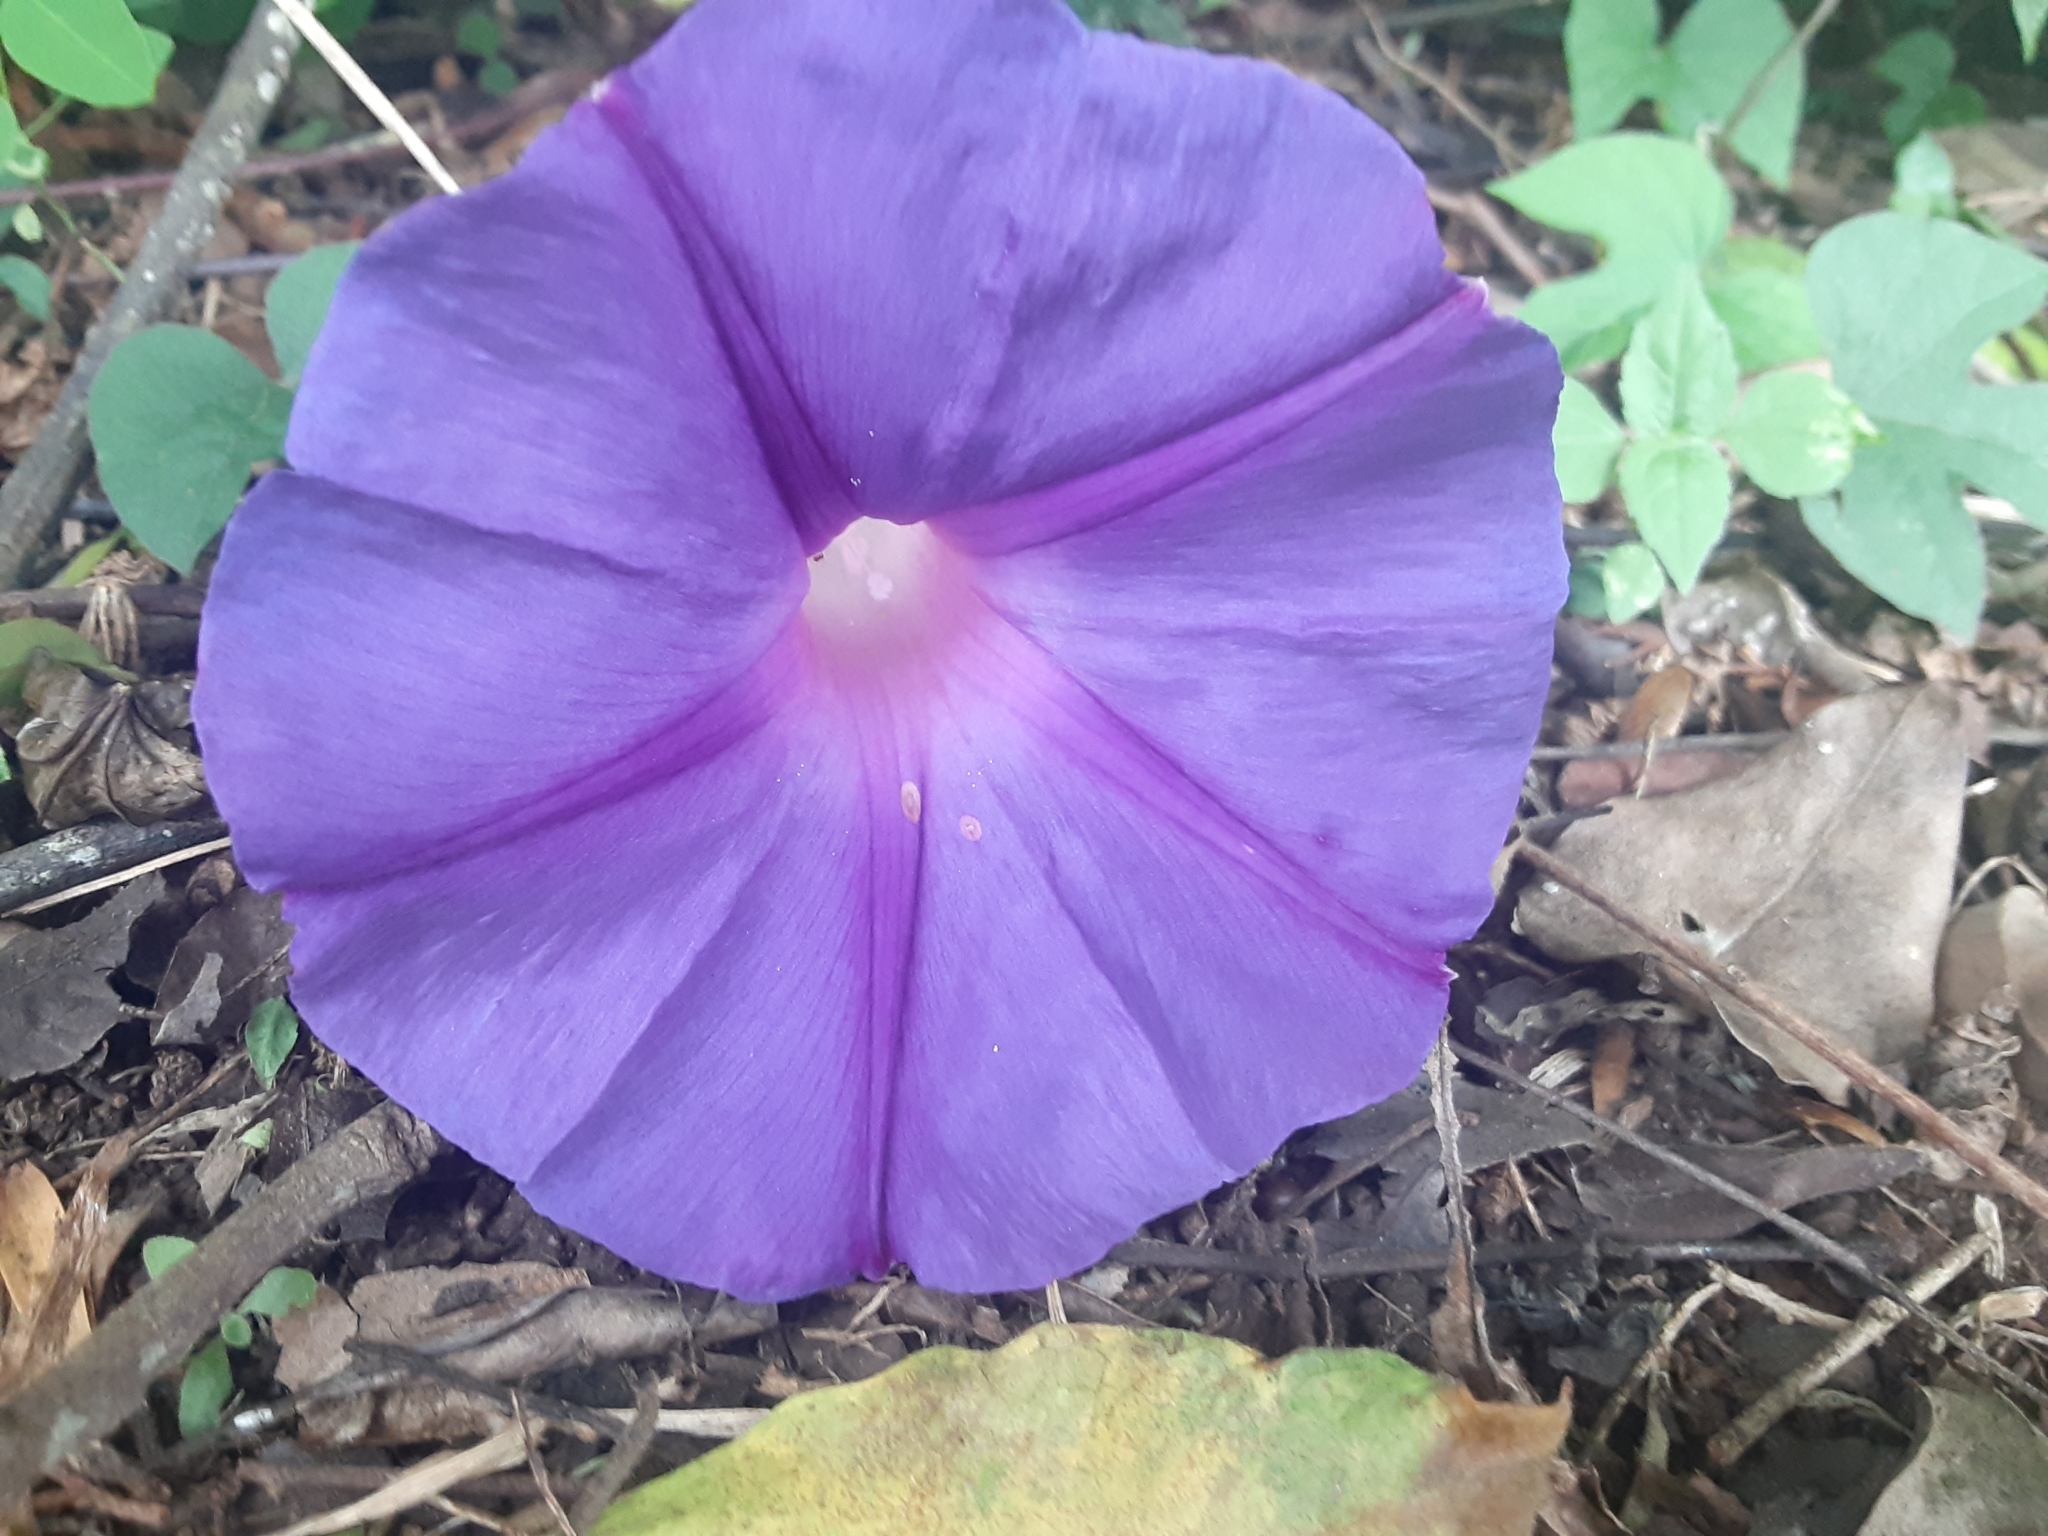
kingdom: Plantae
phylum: Tracheophyta
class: Magnoliopsida
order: Solanales
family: Convolvulaceae
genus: Ipomoea
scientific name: Ipomoea indica
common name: Blue dawnflower
